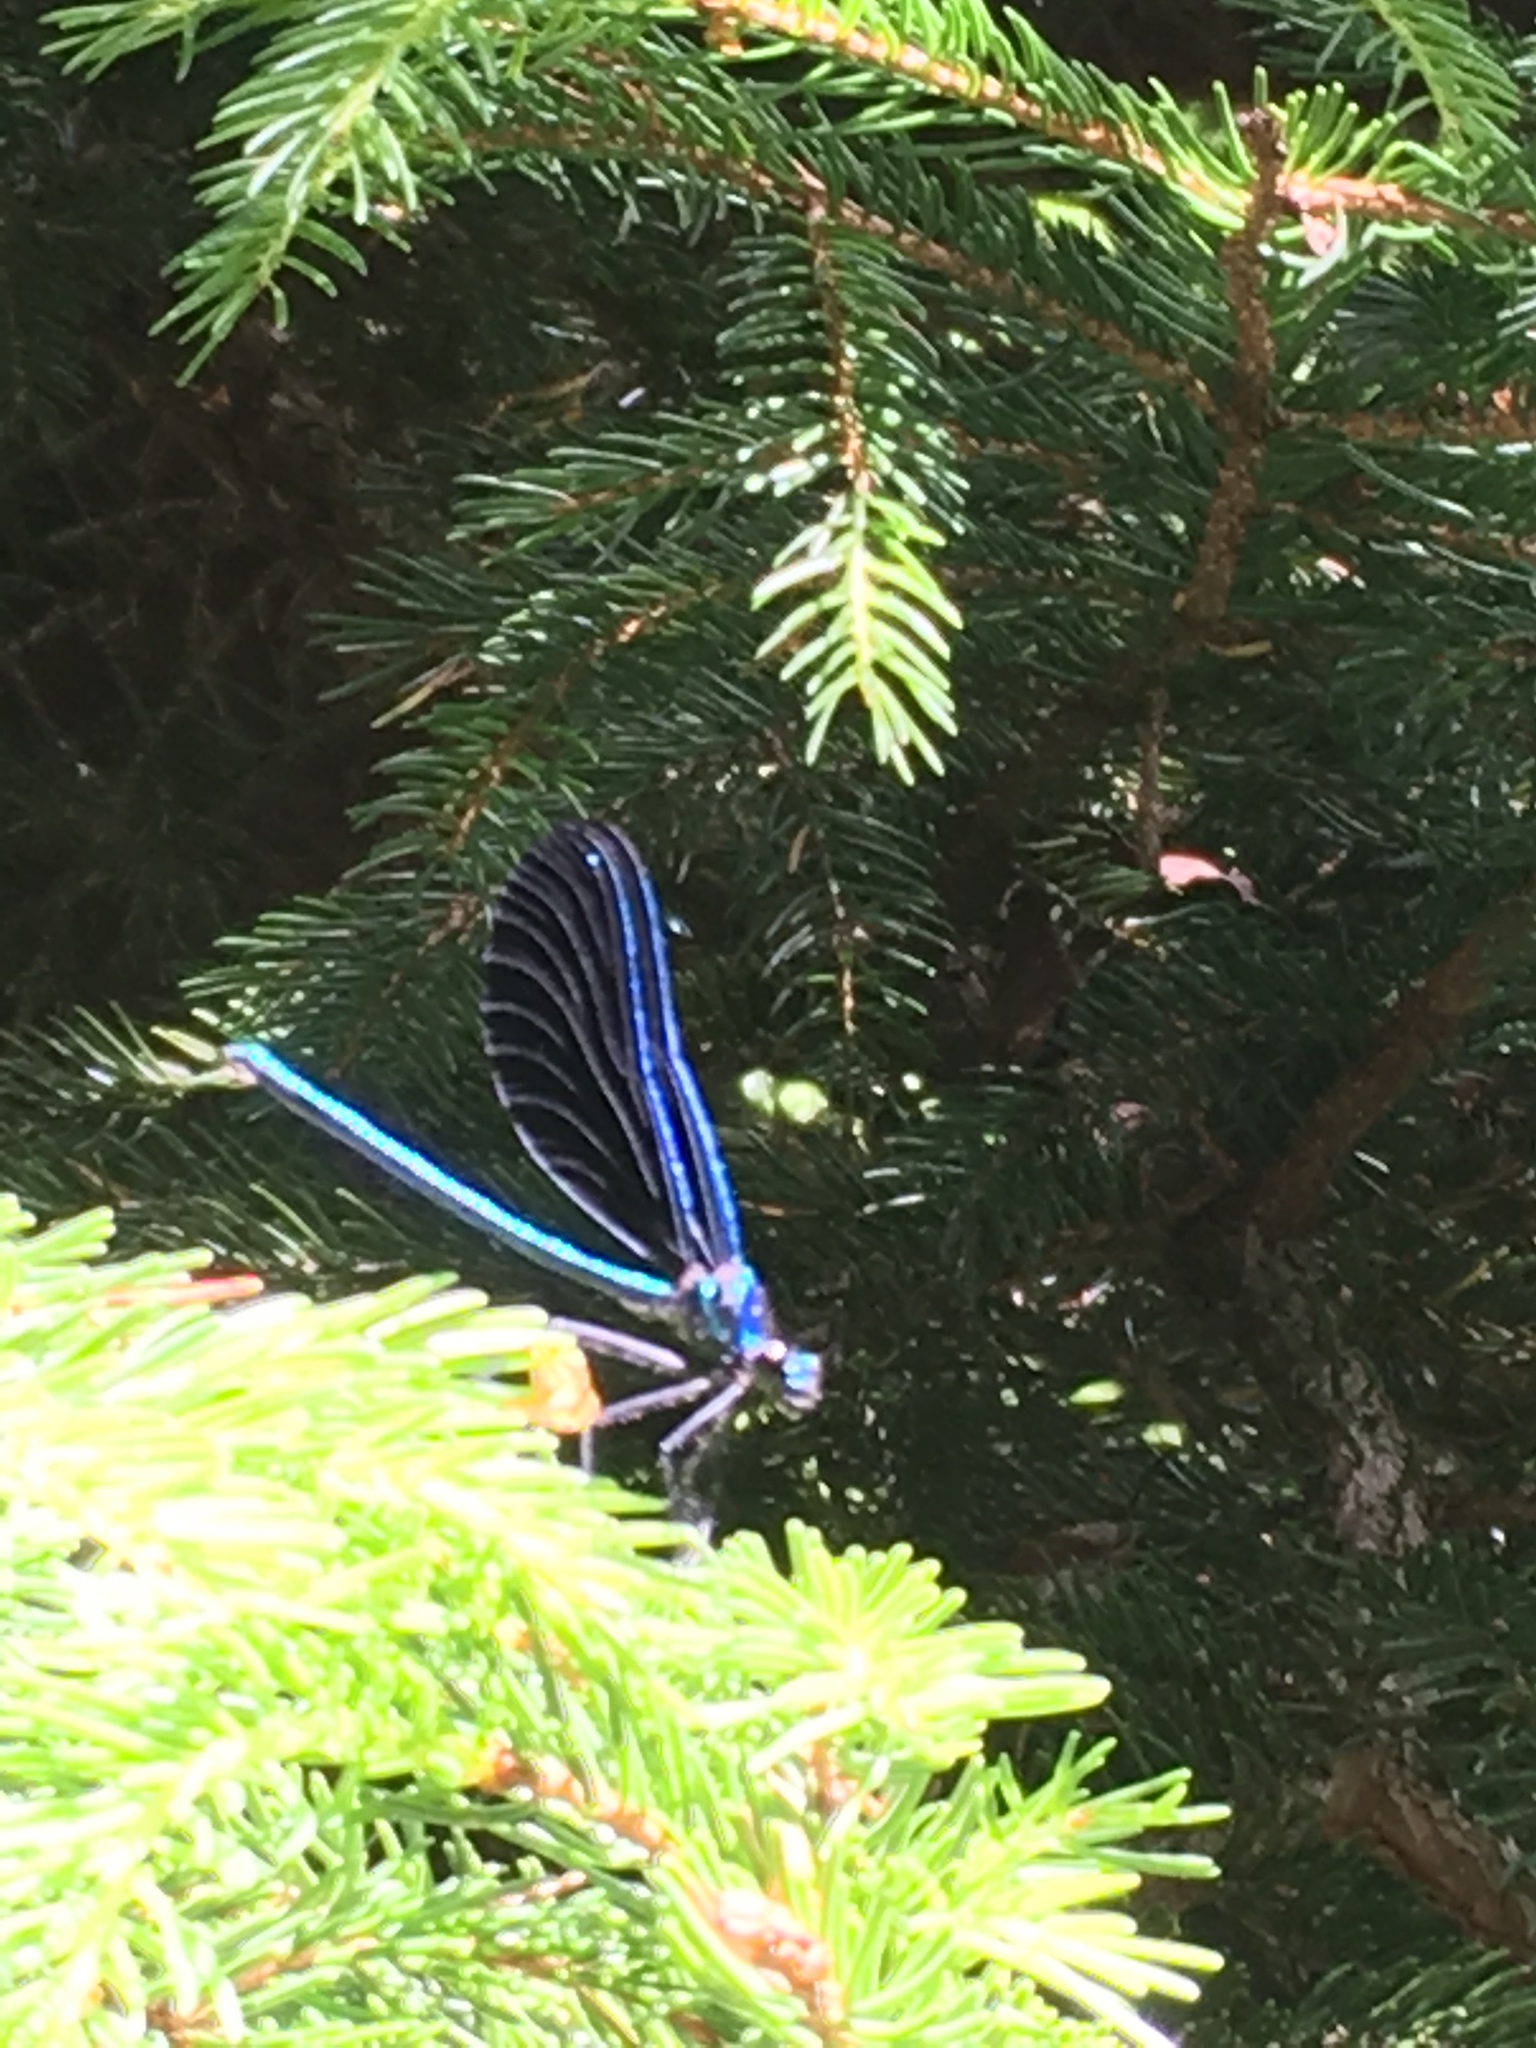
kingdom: Animalia
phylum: Arthropoda
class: Insecta
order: Odonata
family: Calopterygidae
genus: Calopteryx
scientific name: Calopteryx maculata
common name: Ebony jewelwing
